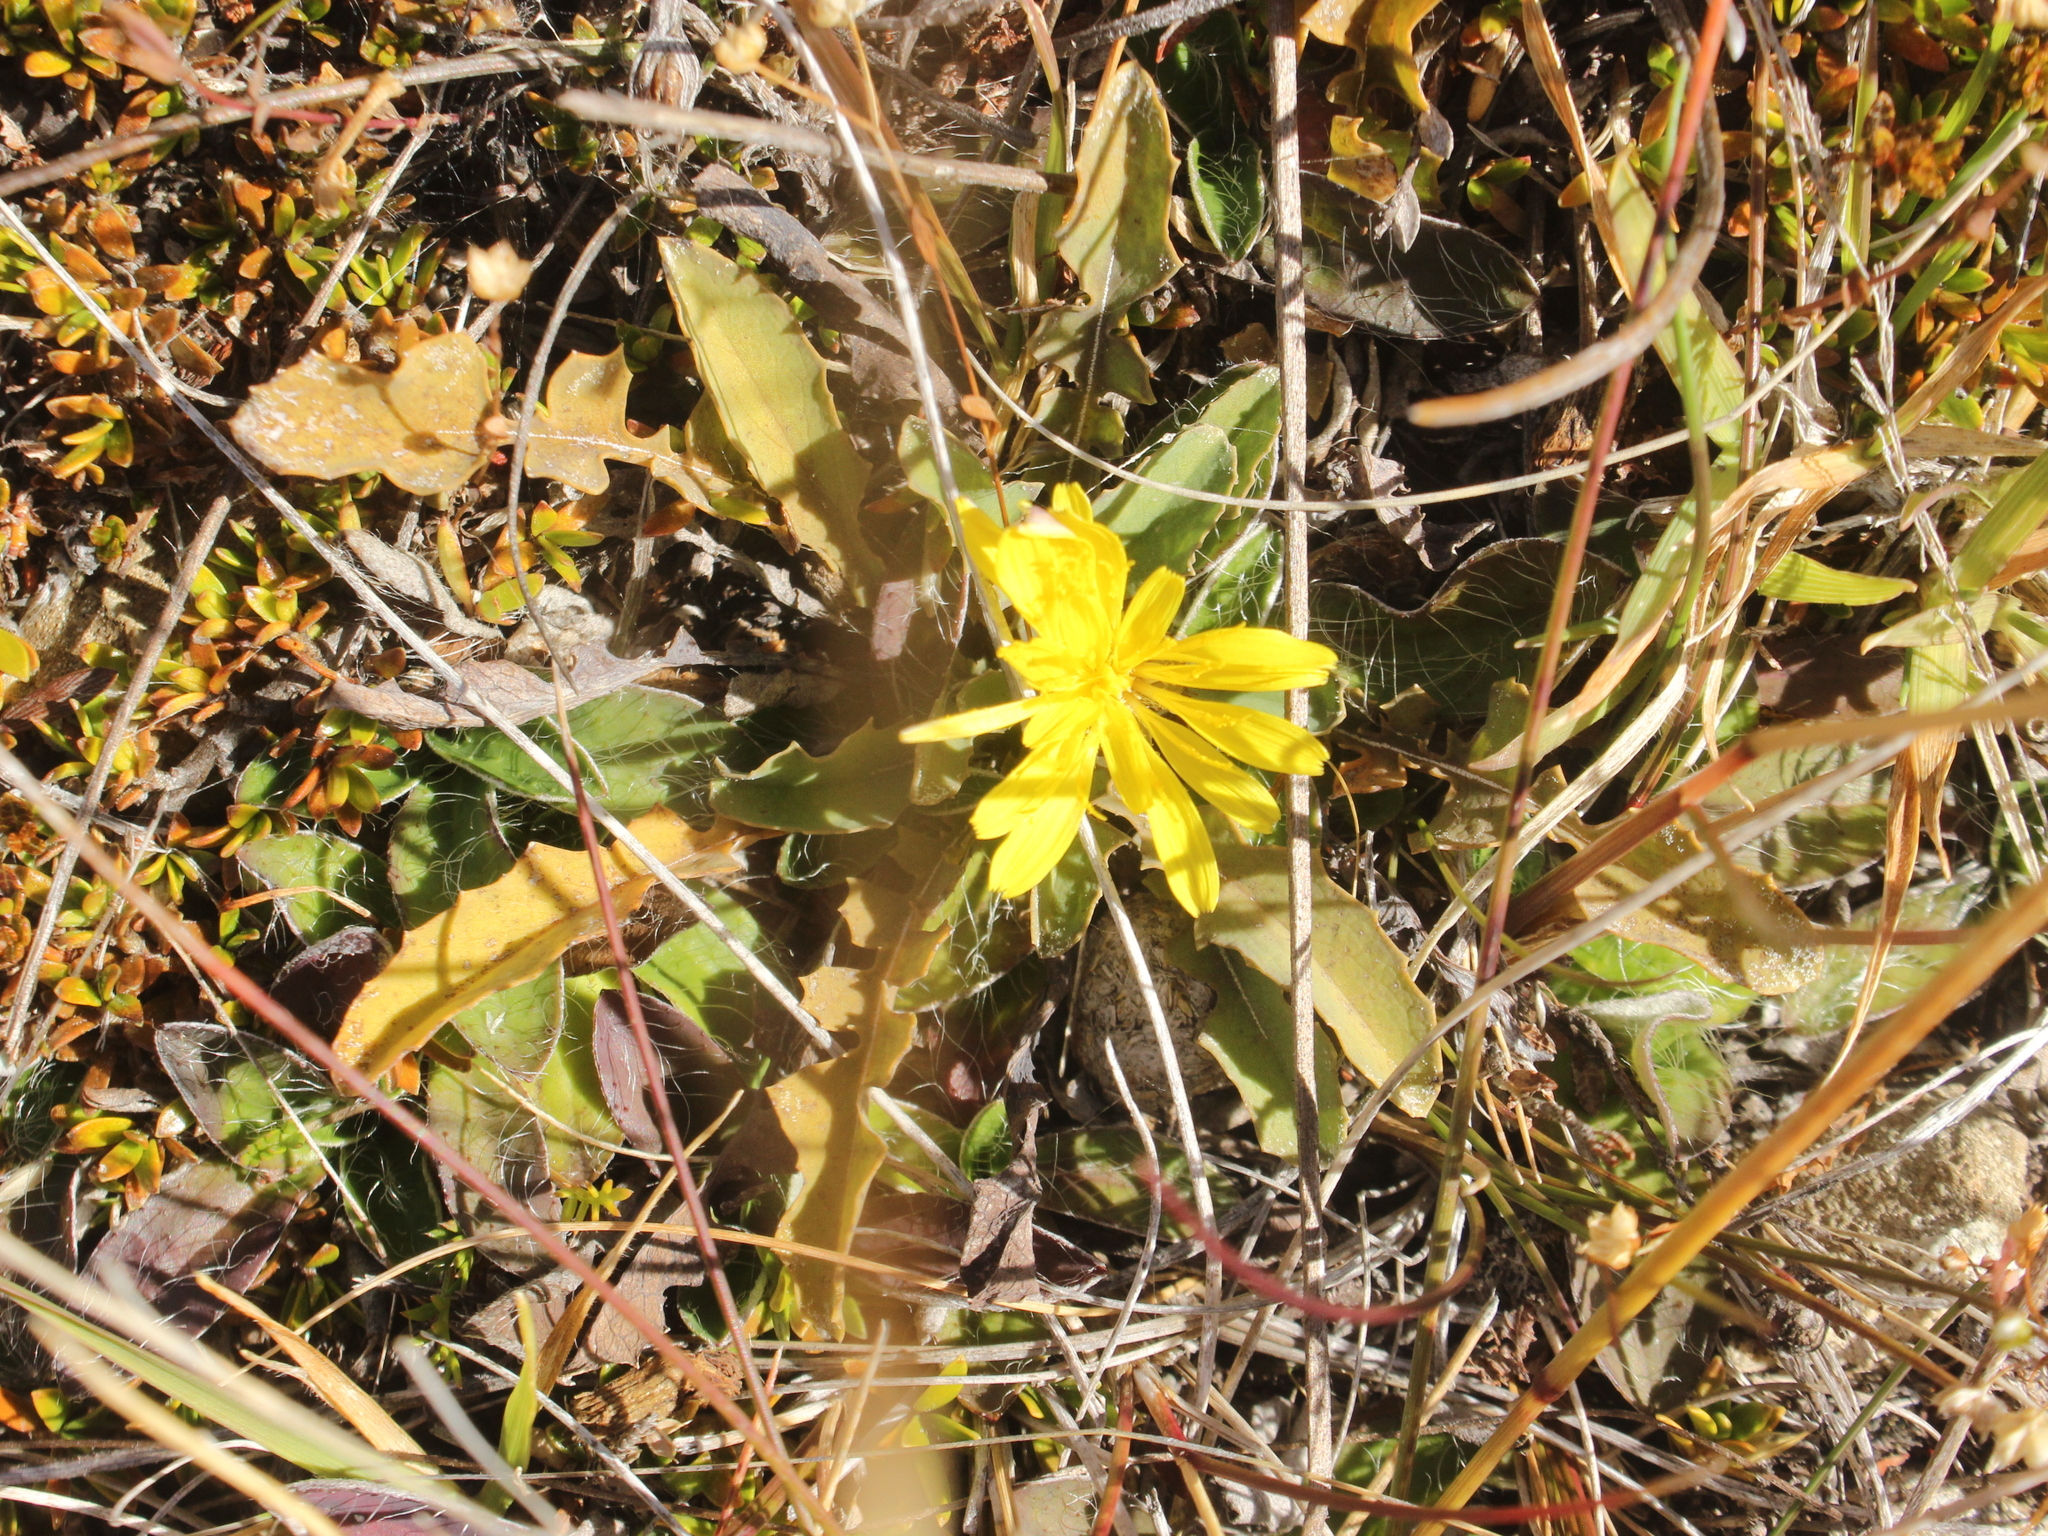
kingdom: Plantae
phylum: Tracheophyta
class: Magnoliopsida
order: Asterales
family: Asteraceae
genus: Sonchus
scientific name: Sonchus novae-zelandiae
